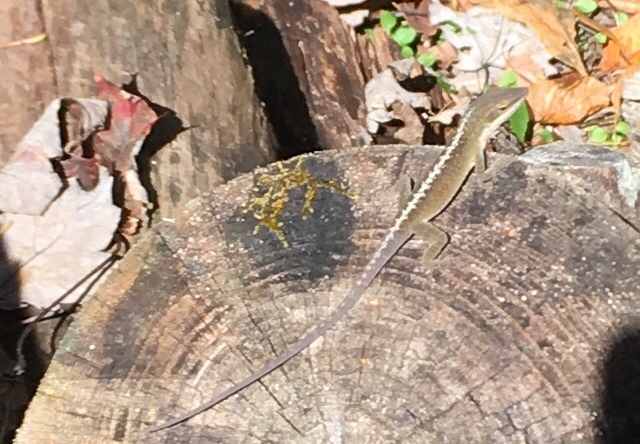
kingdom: Animalia
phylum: Chordata
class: Squamata
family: Dactyloidae
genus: Anolis
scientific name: Anolis carolinensis
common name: Green anole
